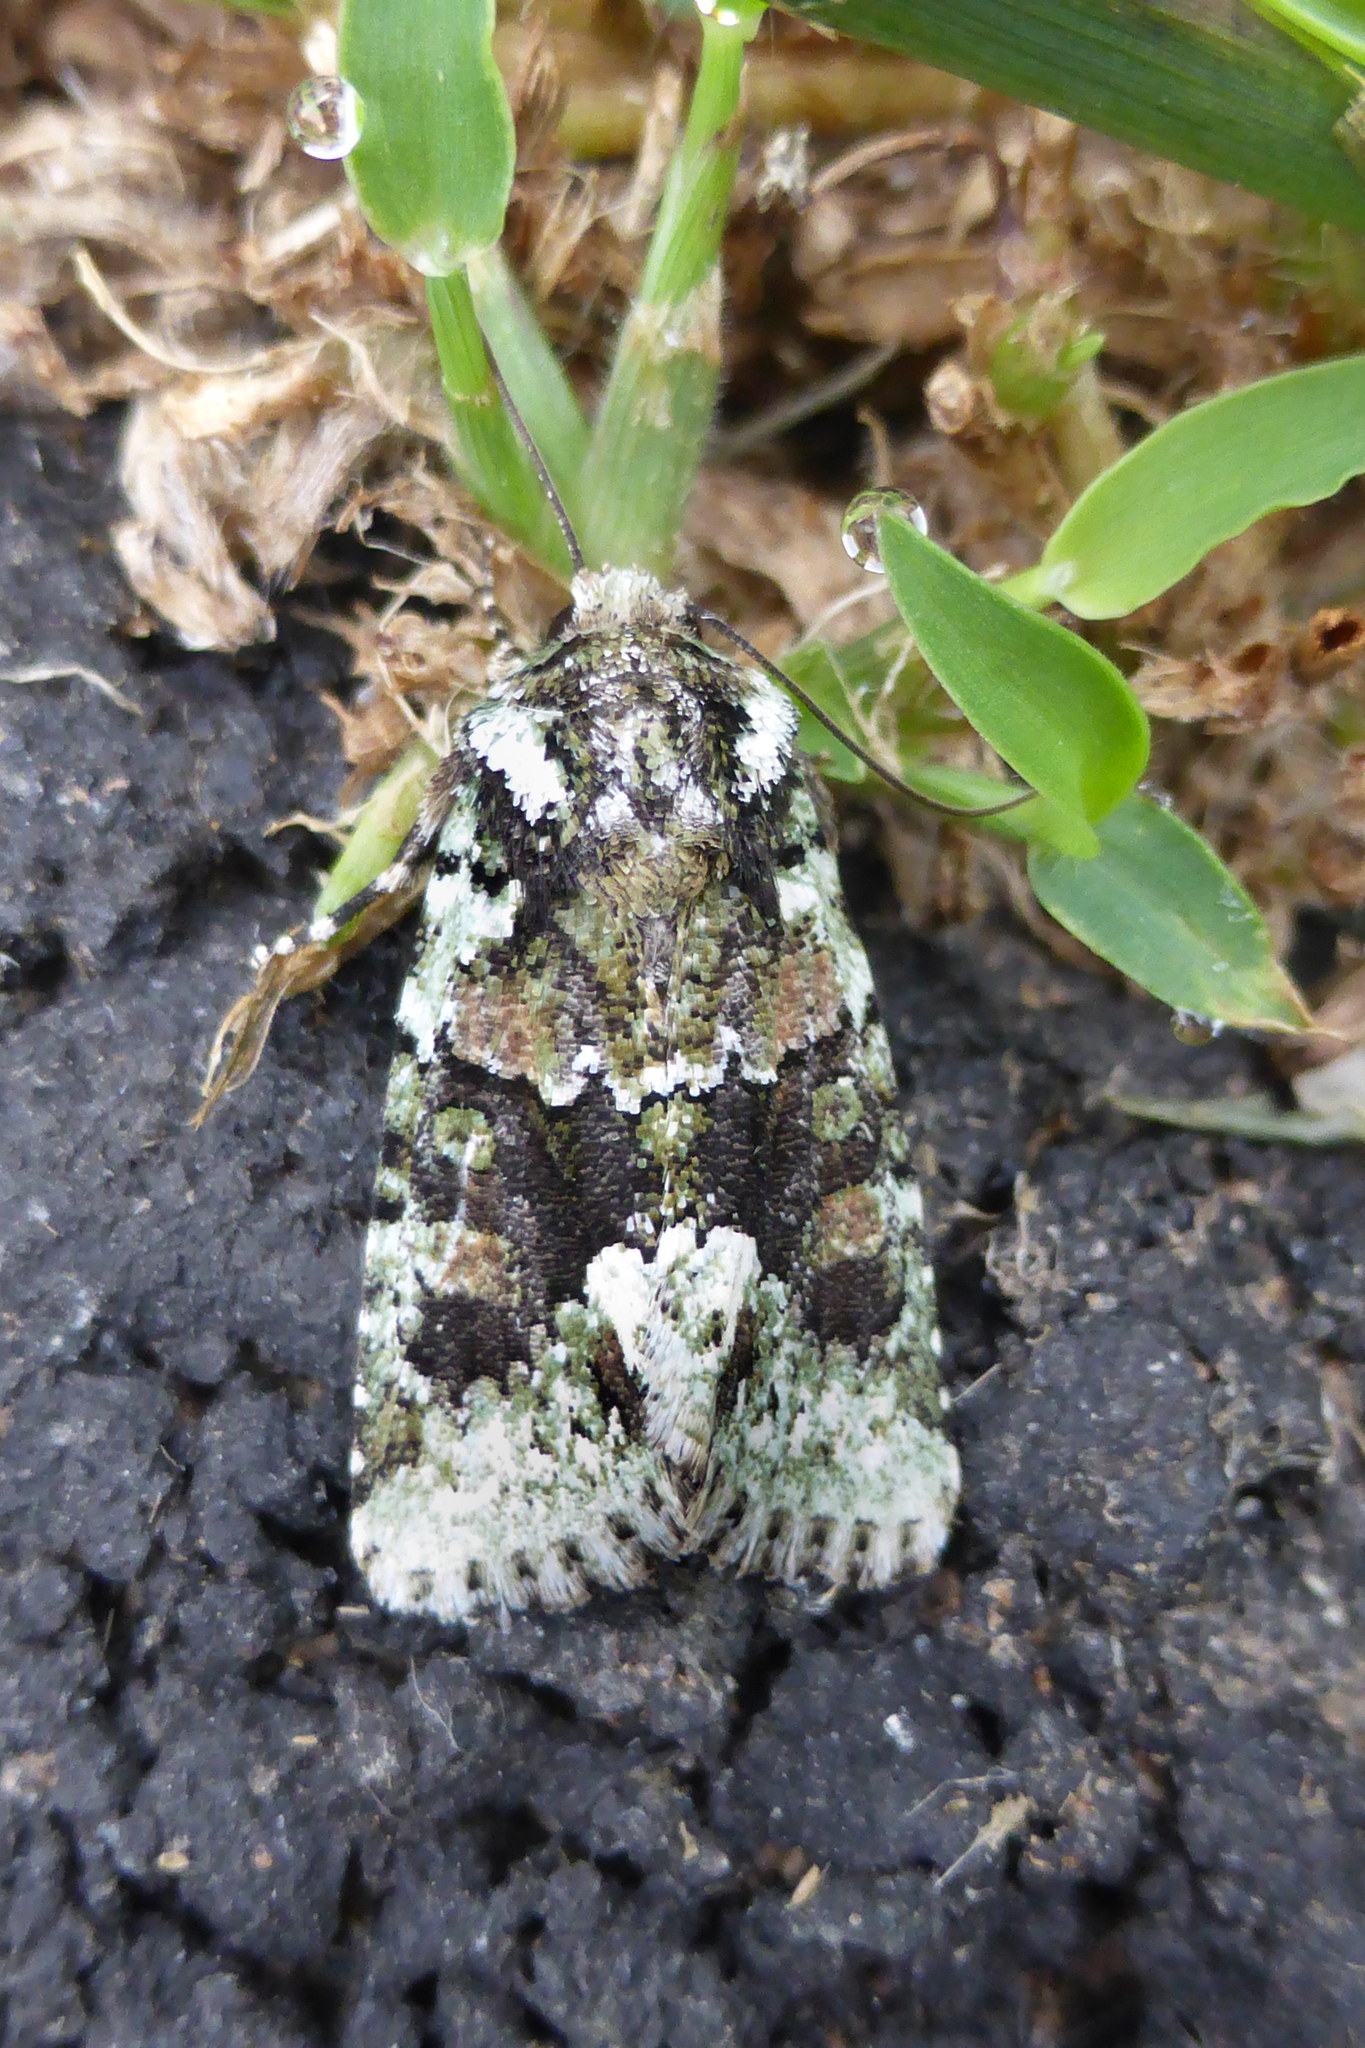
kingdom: Animalia
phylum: Arthropoda
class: Insecta
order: Lepidoptera
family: Noctuidae
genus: Lacinipolia
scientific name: Lacinipolia explicata
